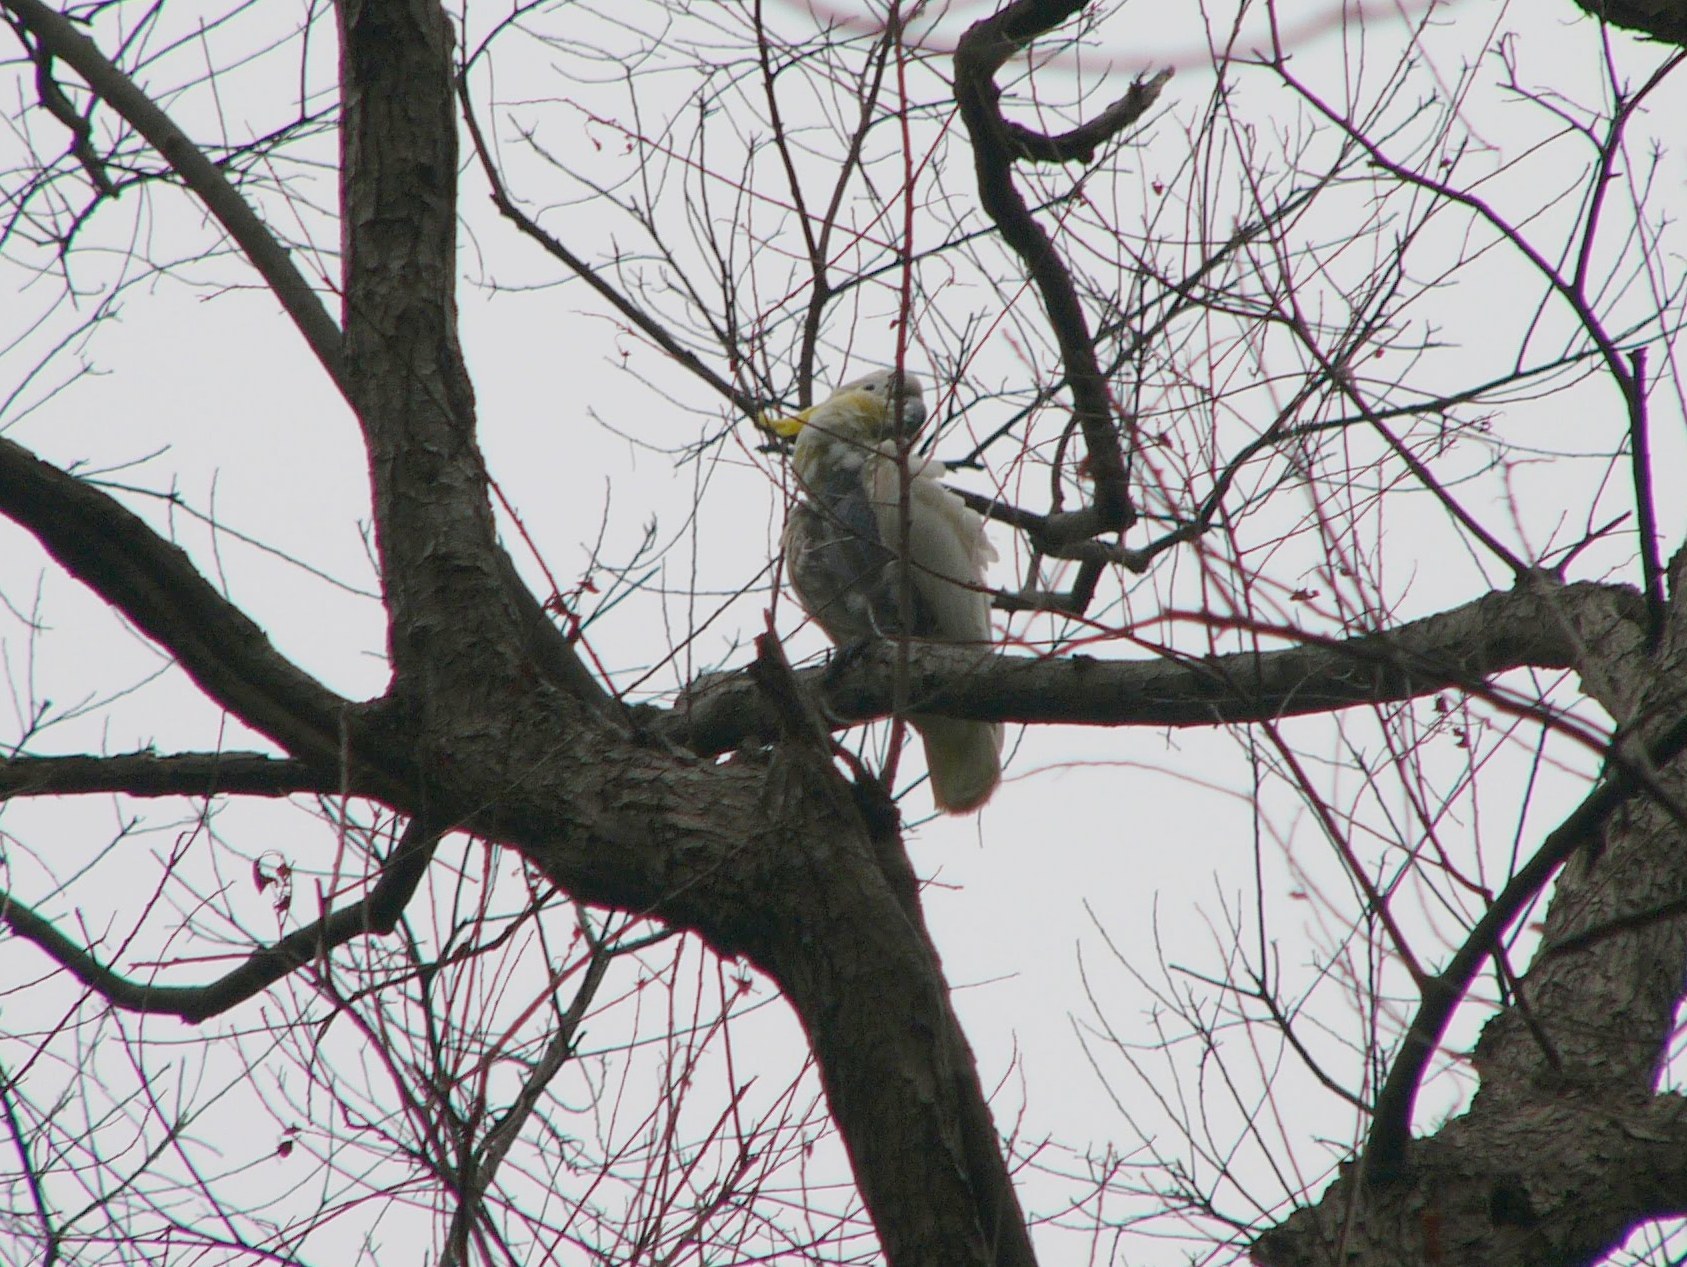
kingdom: Animalia
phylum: Chordata
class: Aves
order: Psittaciformes
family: Psittacidae
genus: Cacatua
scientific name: Cacatua sulphurea
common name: Yellow-crested cockatoo
